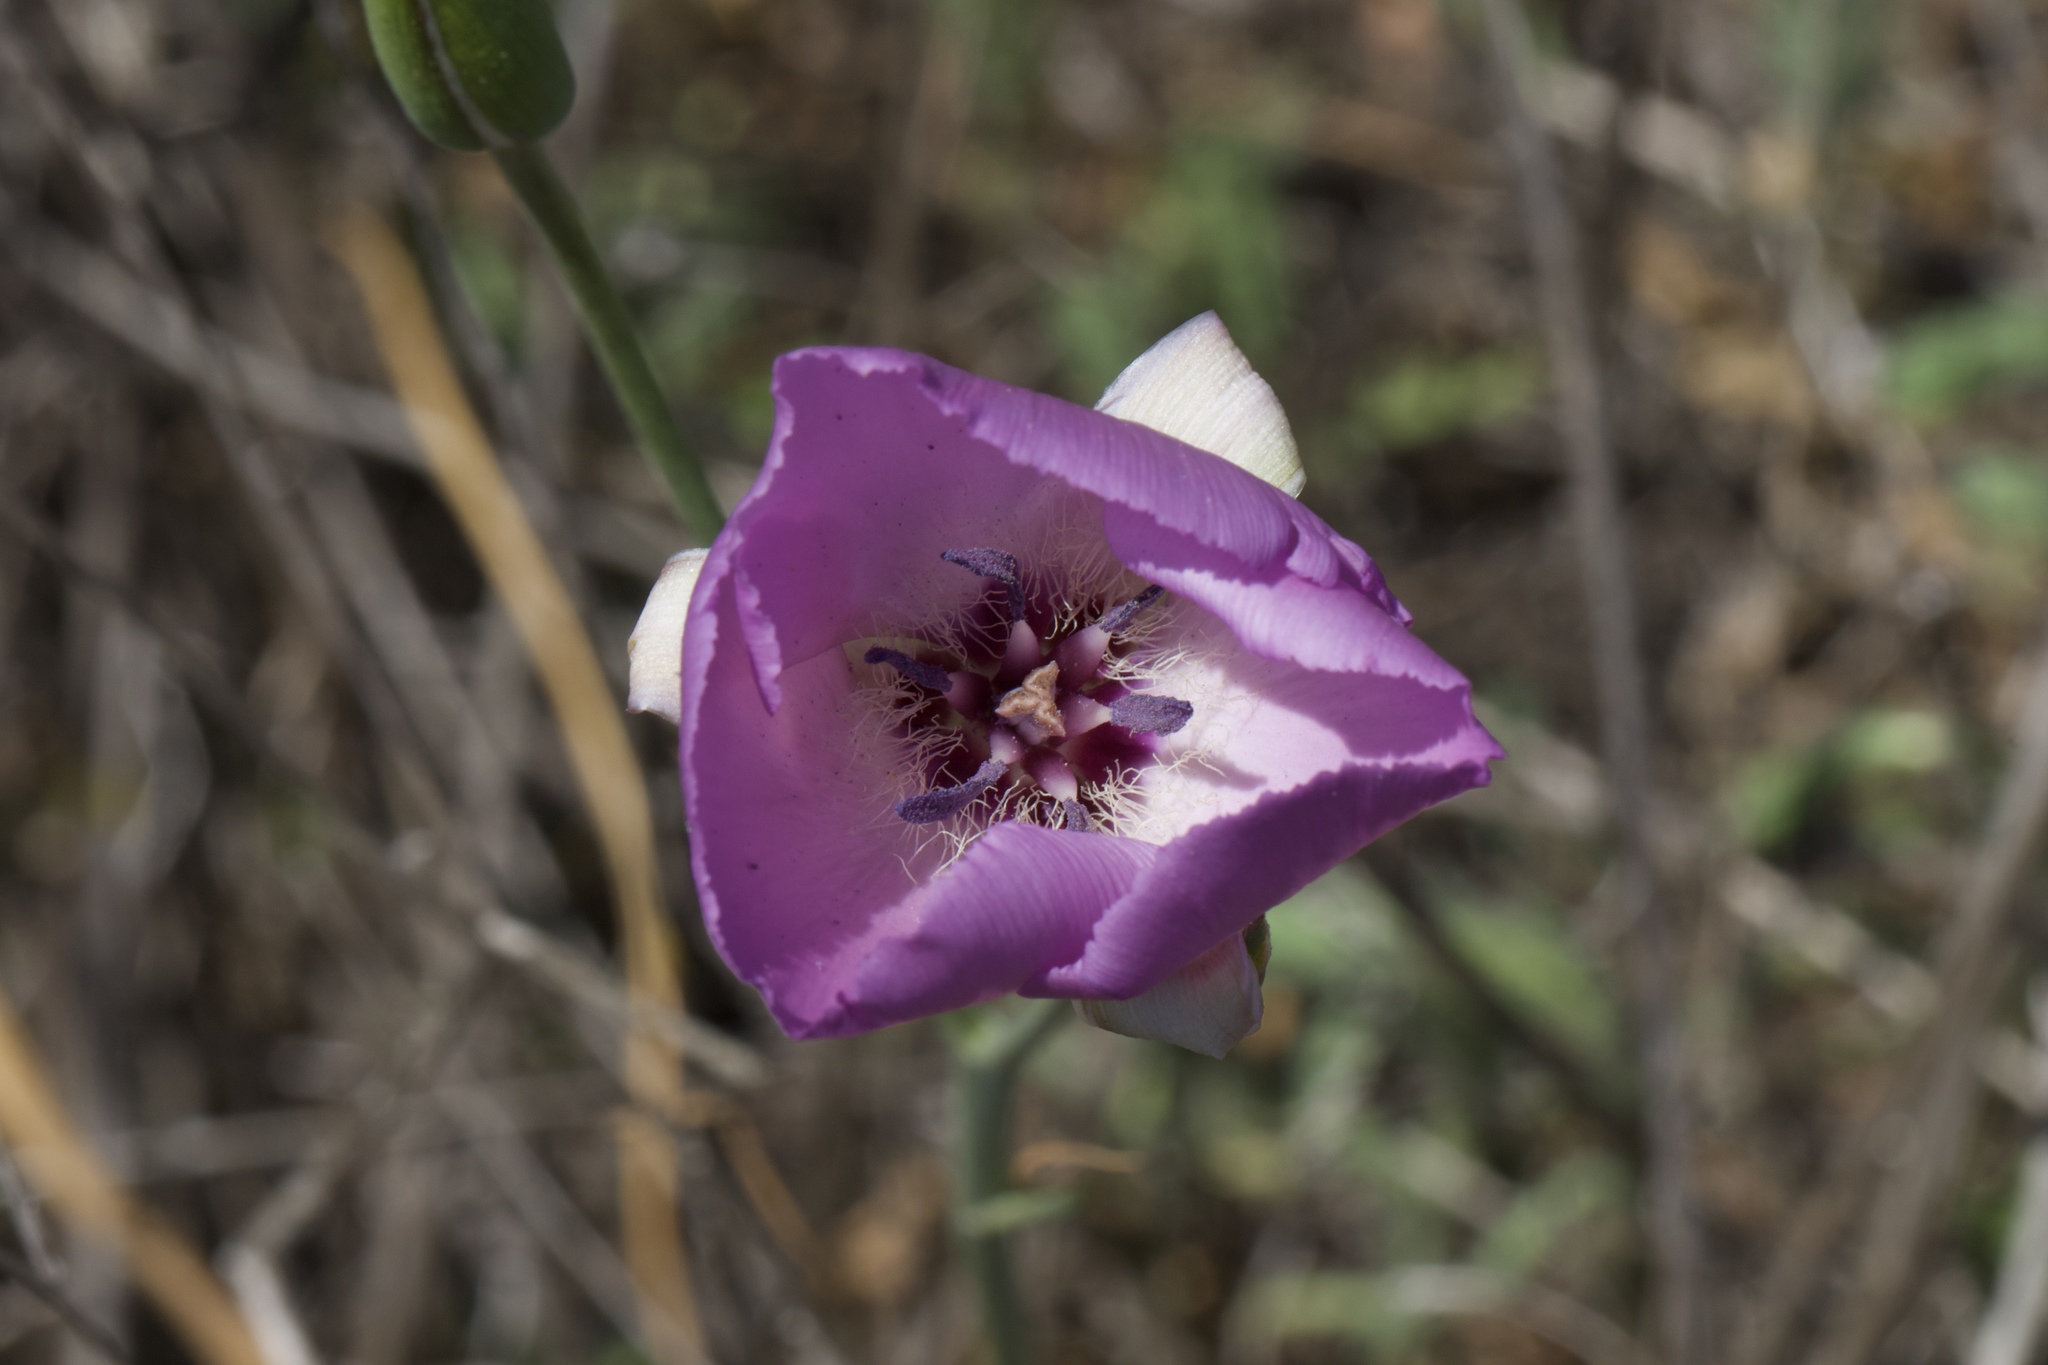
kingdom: Plantae
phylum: Tracheophyta
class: Liliopsida
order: Liliales
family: Liliaceae
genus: Calochortus
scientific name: Calochortus splendens
